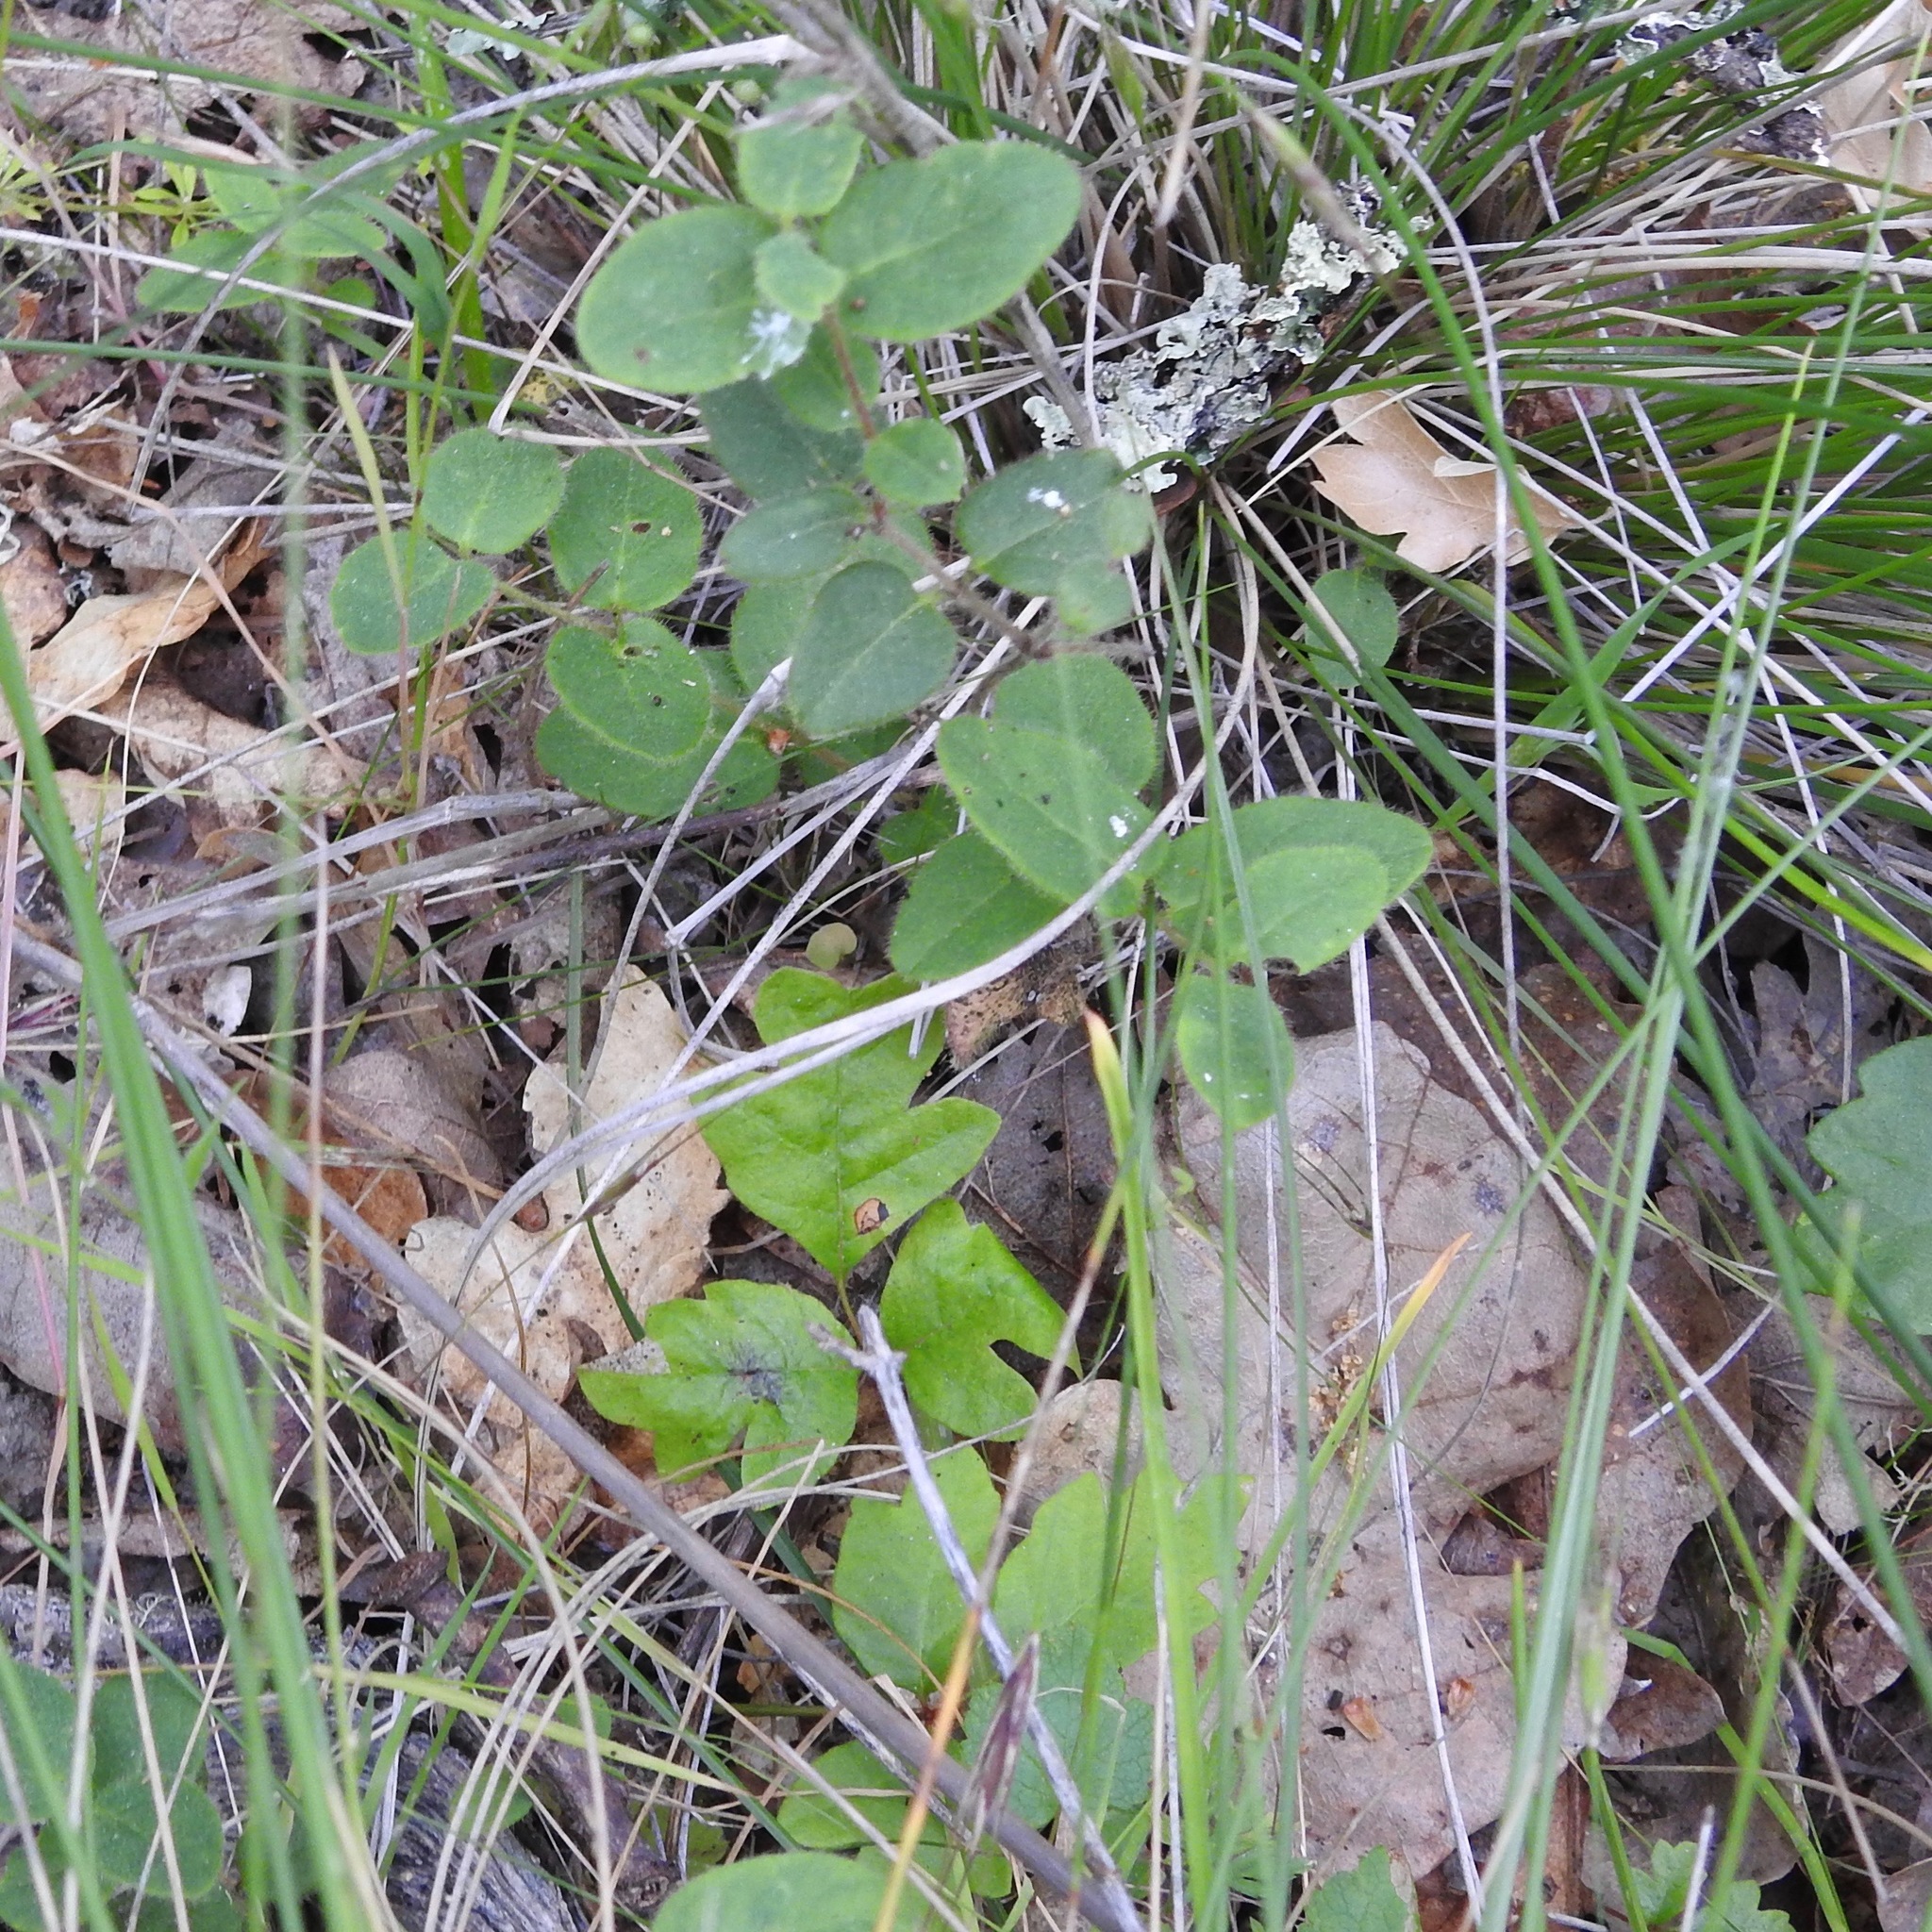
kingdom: Plantae
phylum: Tracheophyta
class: Magnoliopsida
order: Dipsacales
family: Caprifoliaceae
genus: Lonicera
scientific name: Lonicera hispidula
